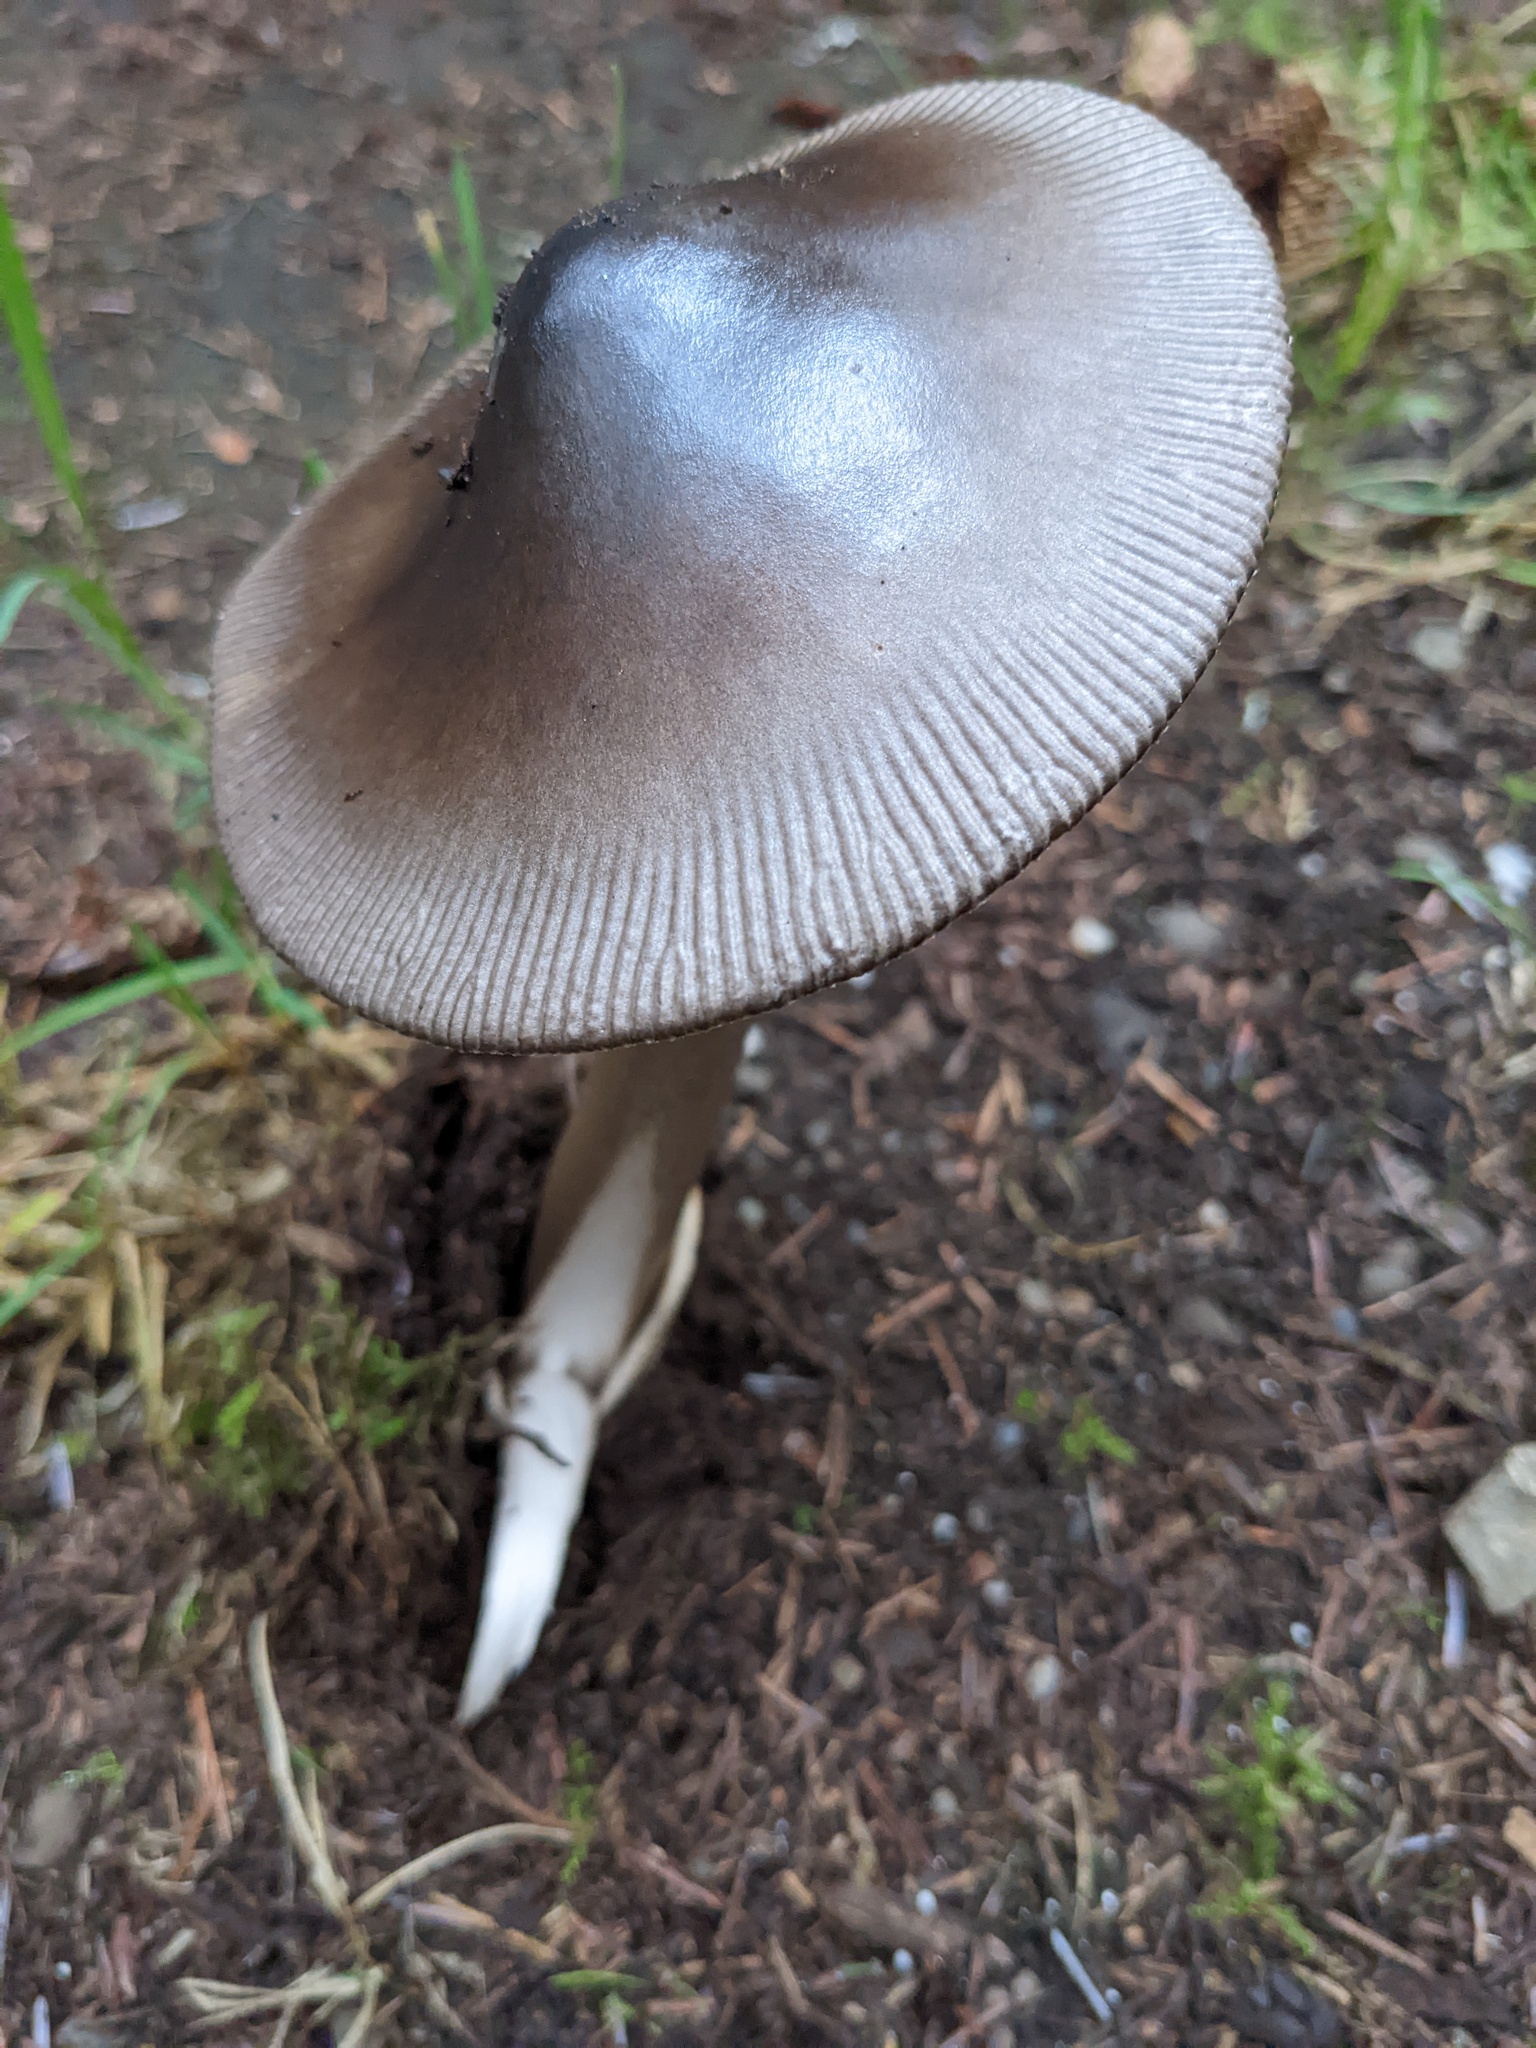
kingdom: Fungi
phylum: Basidiomycota
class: Agaricomycetes
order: Agaricales
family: Amanitaceae
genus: Amanita
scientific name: Amanita pachycolea
